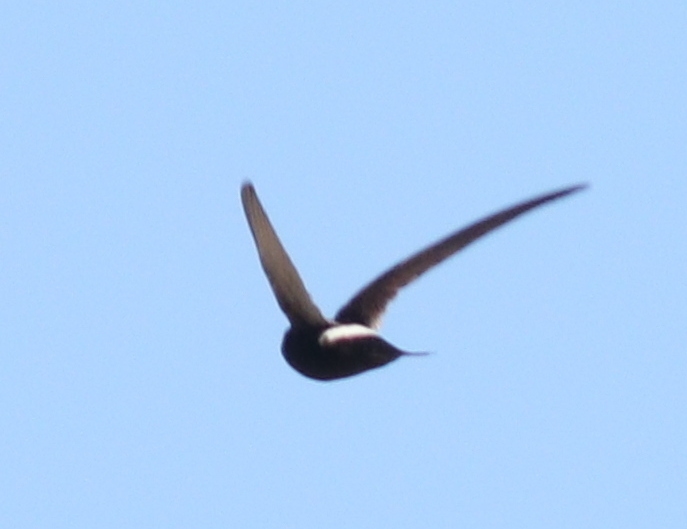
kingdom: Animalia
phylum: Chordata
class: Aves
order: Apodiformes
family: Apodidae
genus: Apus
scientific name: Apus caffer
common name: White-rumped swift
